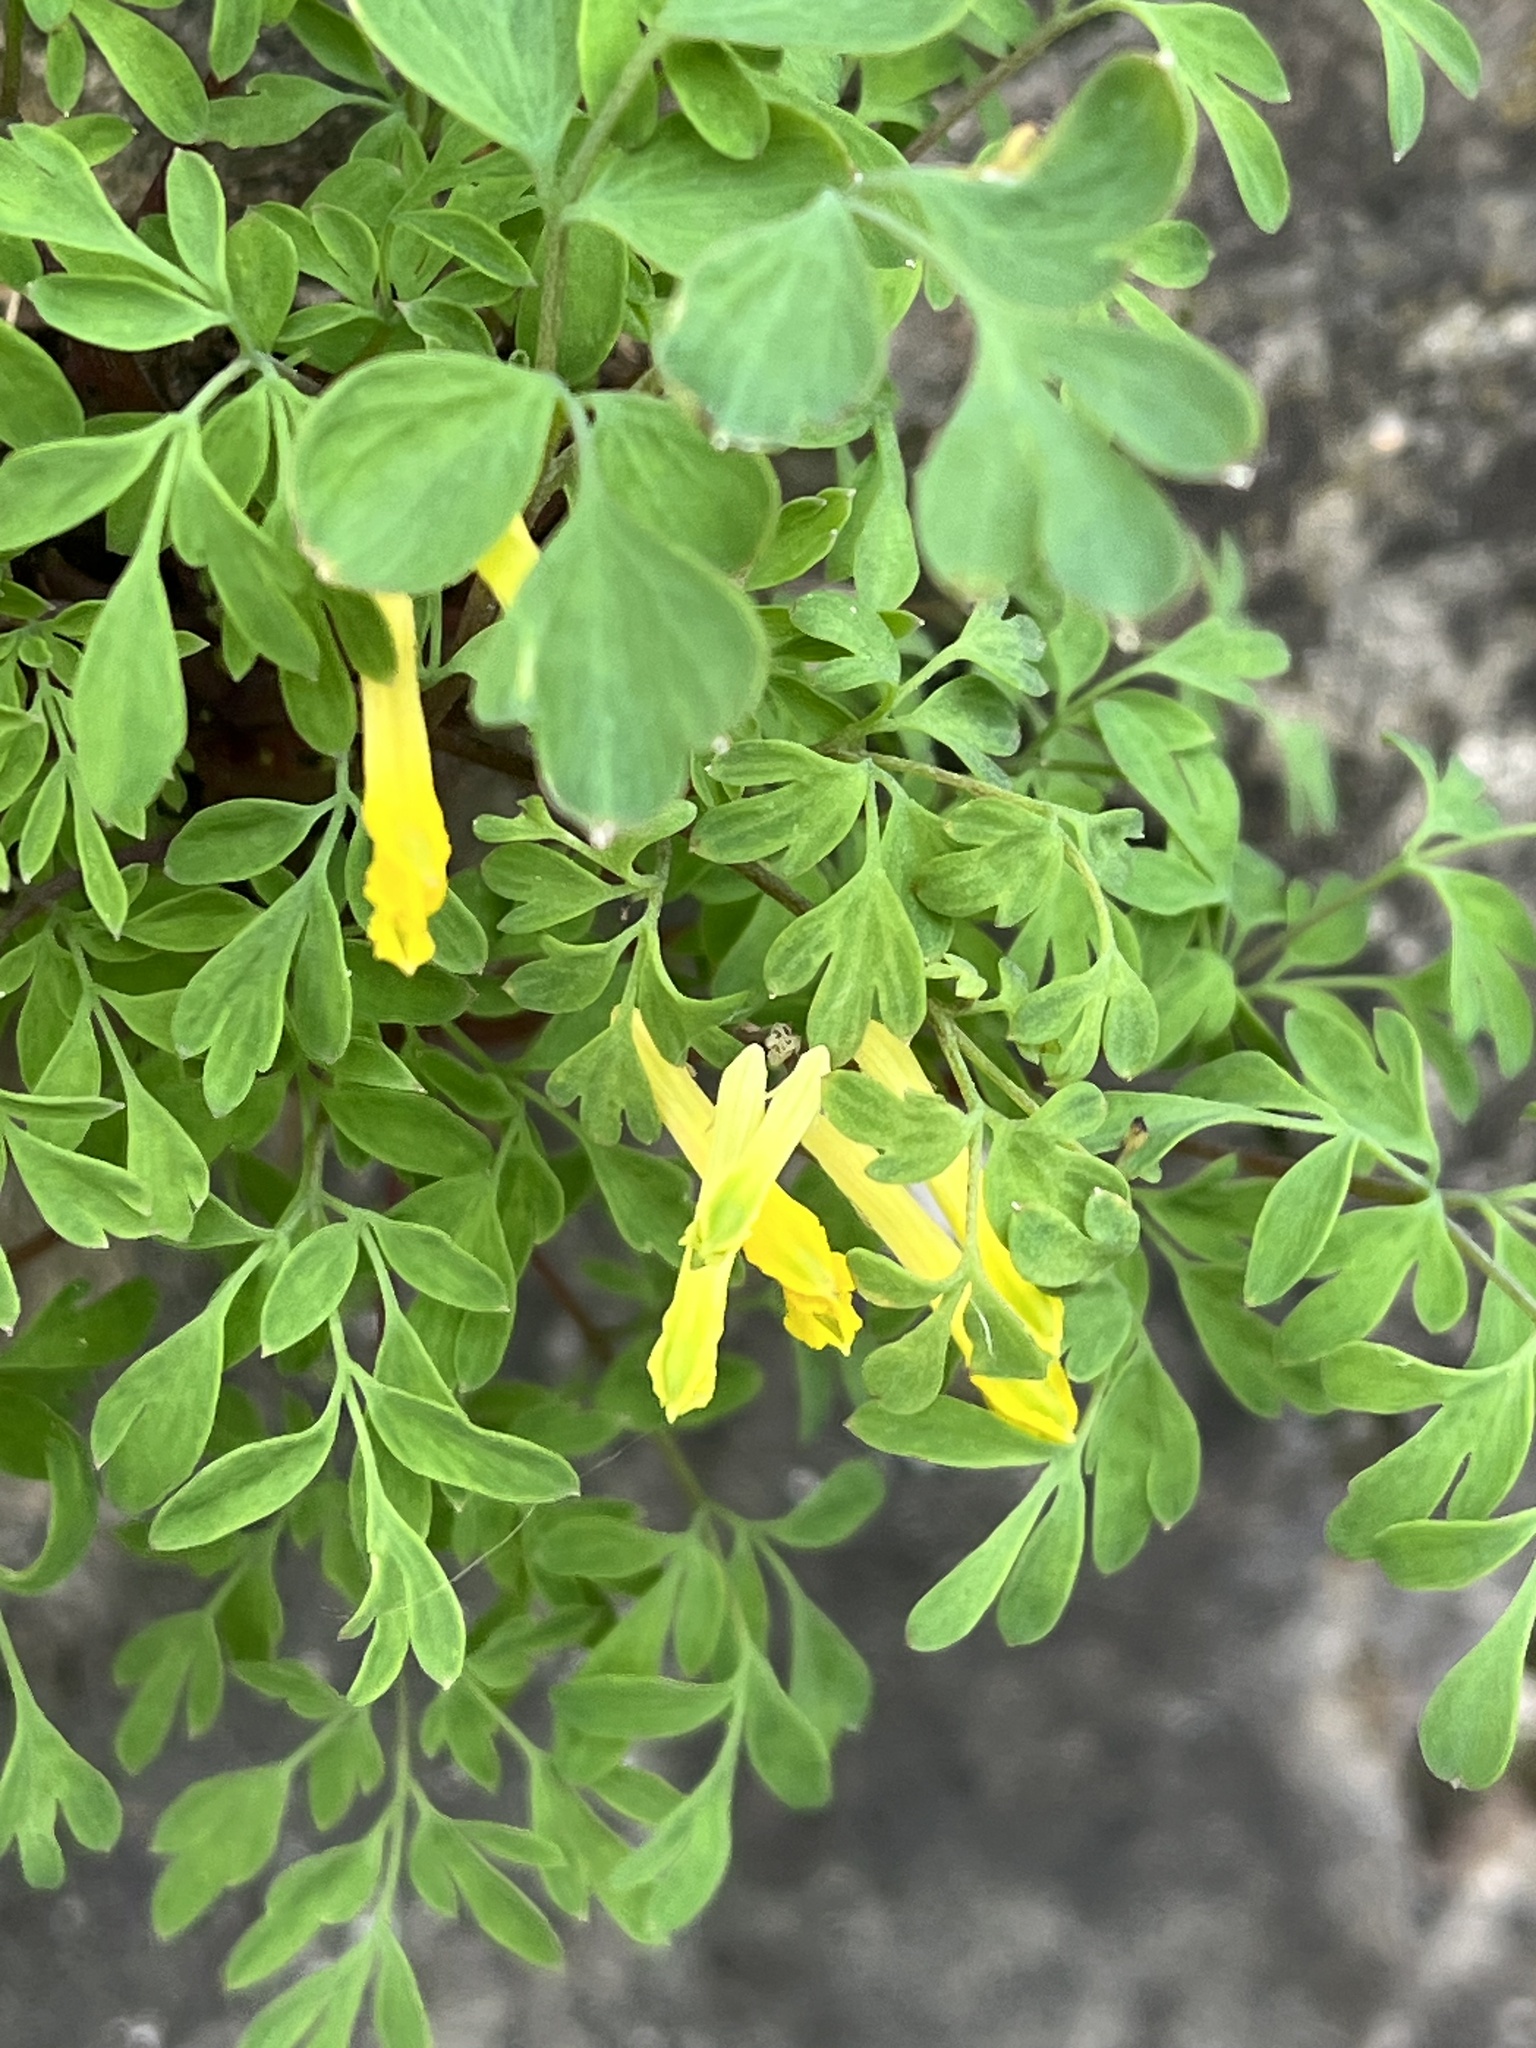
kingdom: Plantae
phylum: Tracheophyta
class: Magnoliopsida
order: Ranunculales
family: Papaveraceae
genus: Pseudofumaria
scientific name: Pseudofumaria lutea
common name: Yellow corydalis
